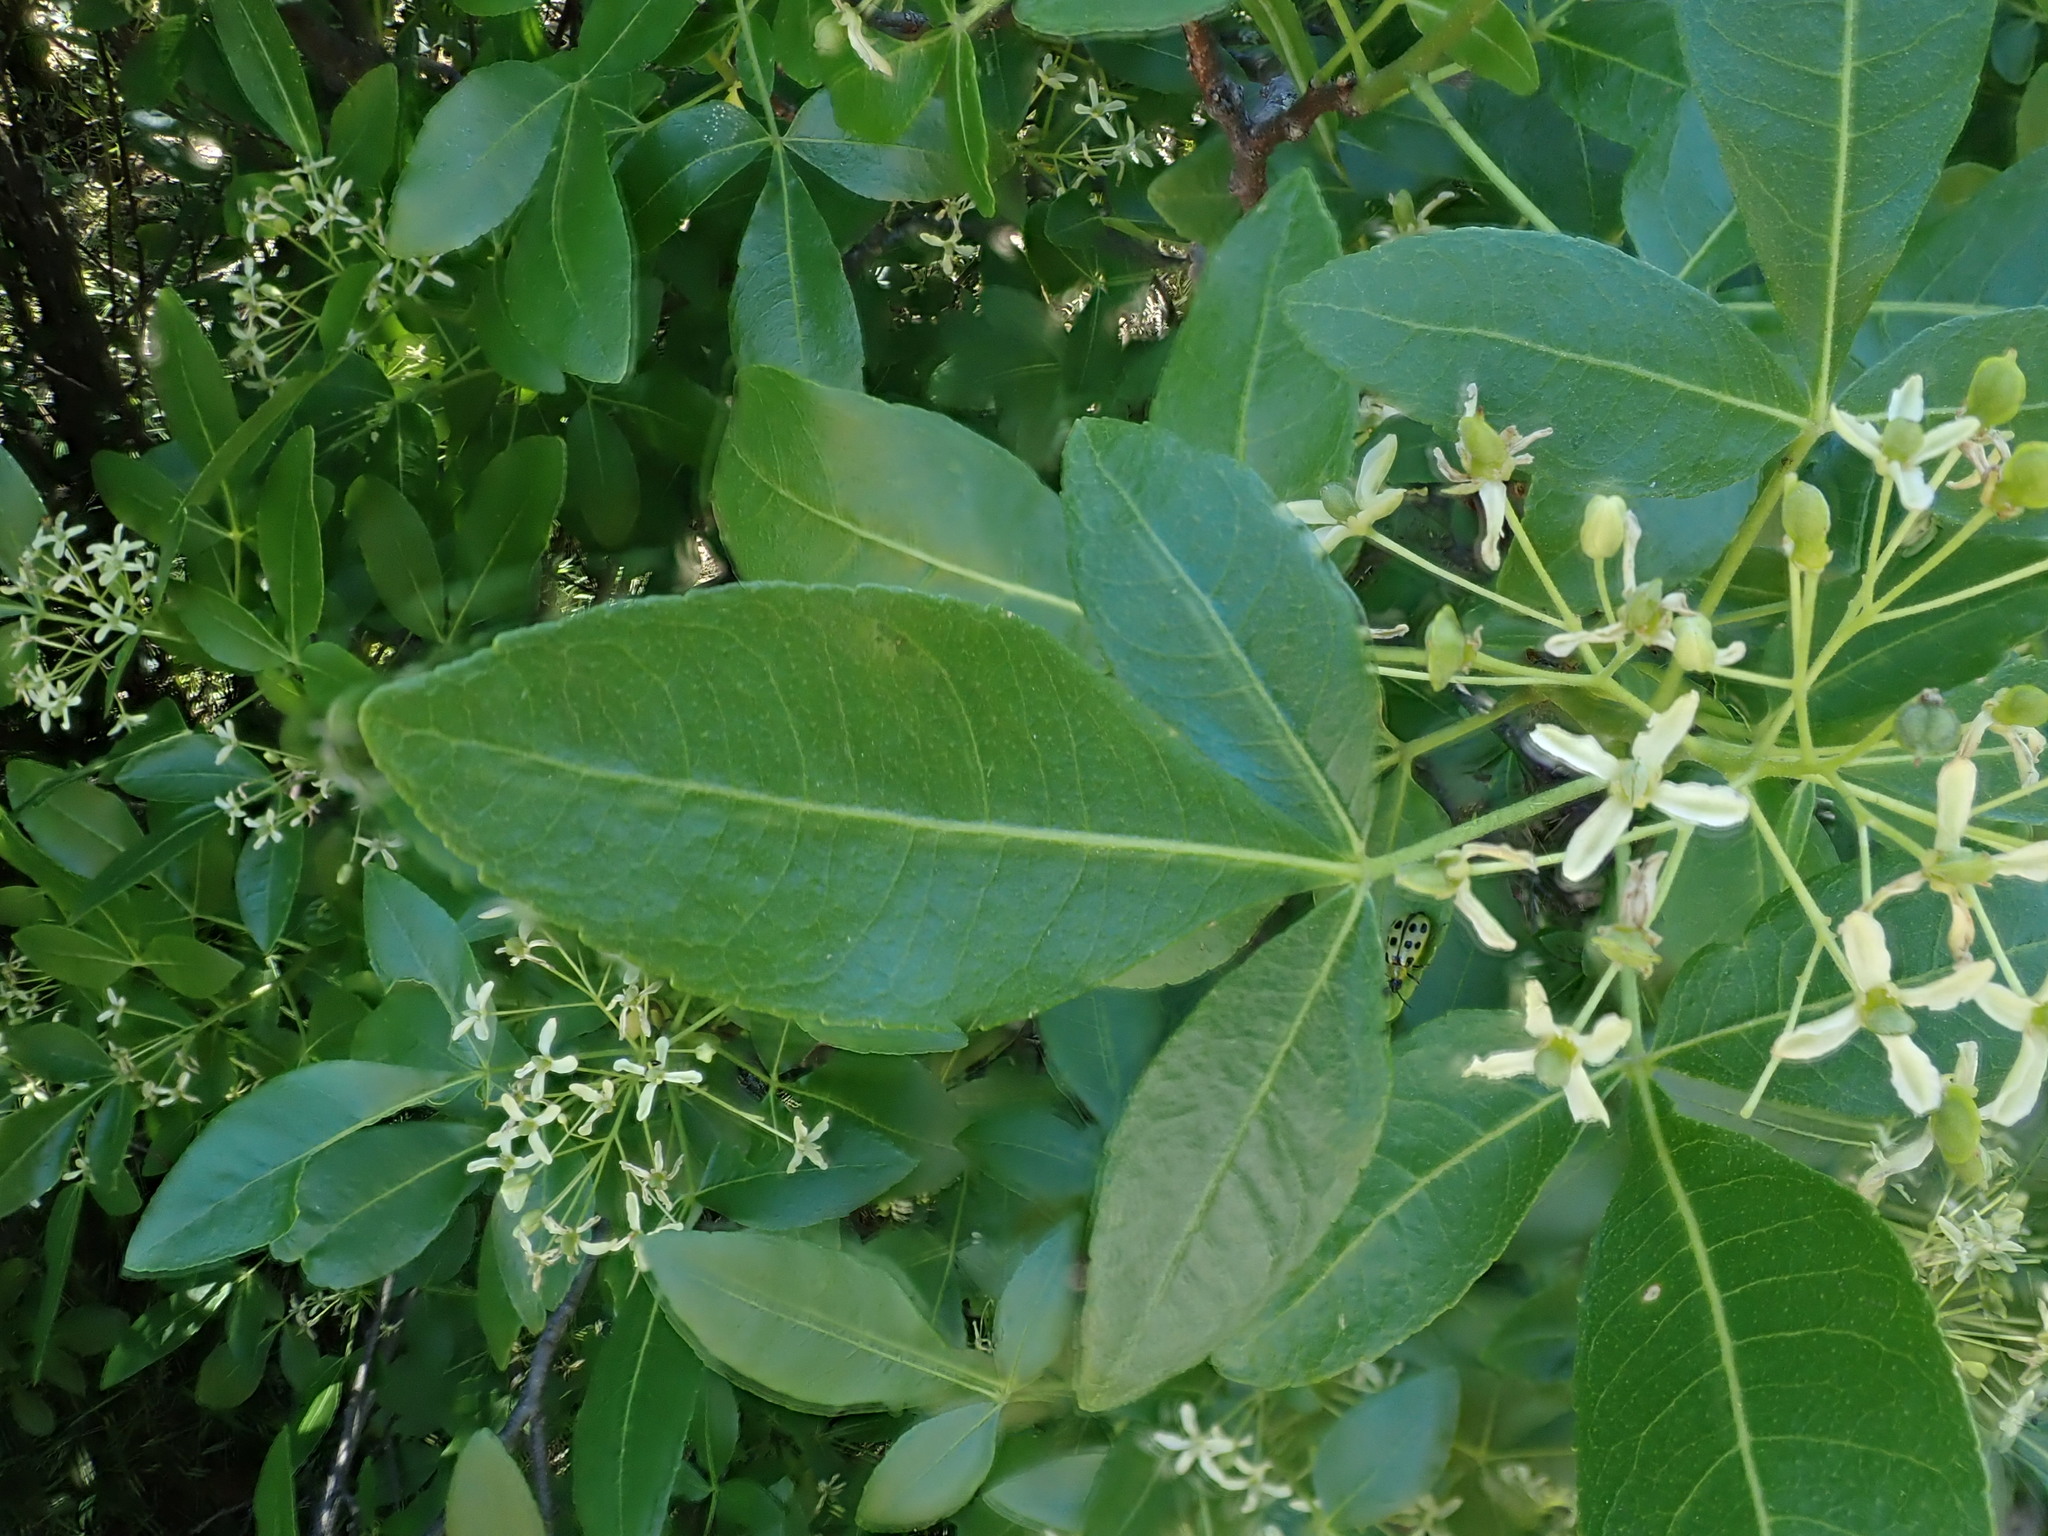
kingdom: Plantae
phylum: Tracheophyta
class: Magnoliopsida
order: Sapindales
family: Rutaceae
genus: Ptelea
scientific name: Ptelea crenulata
